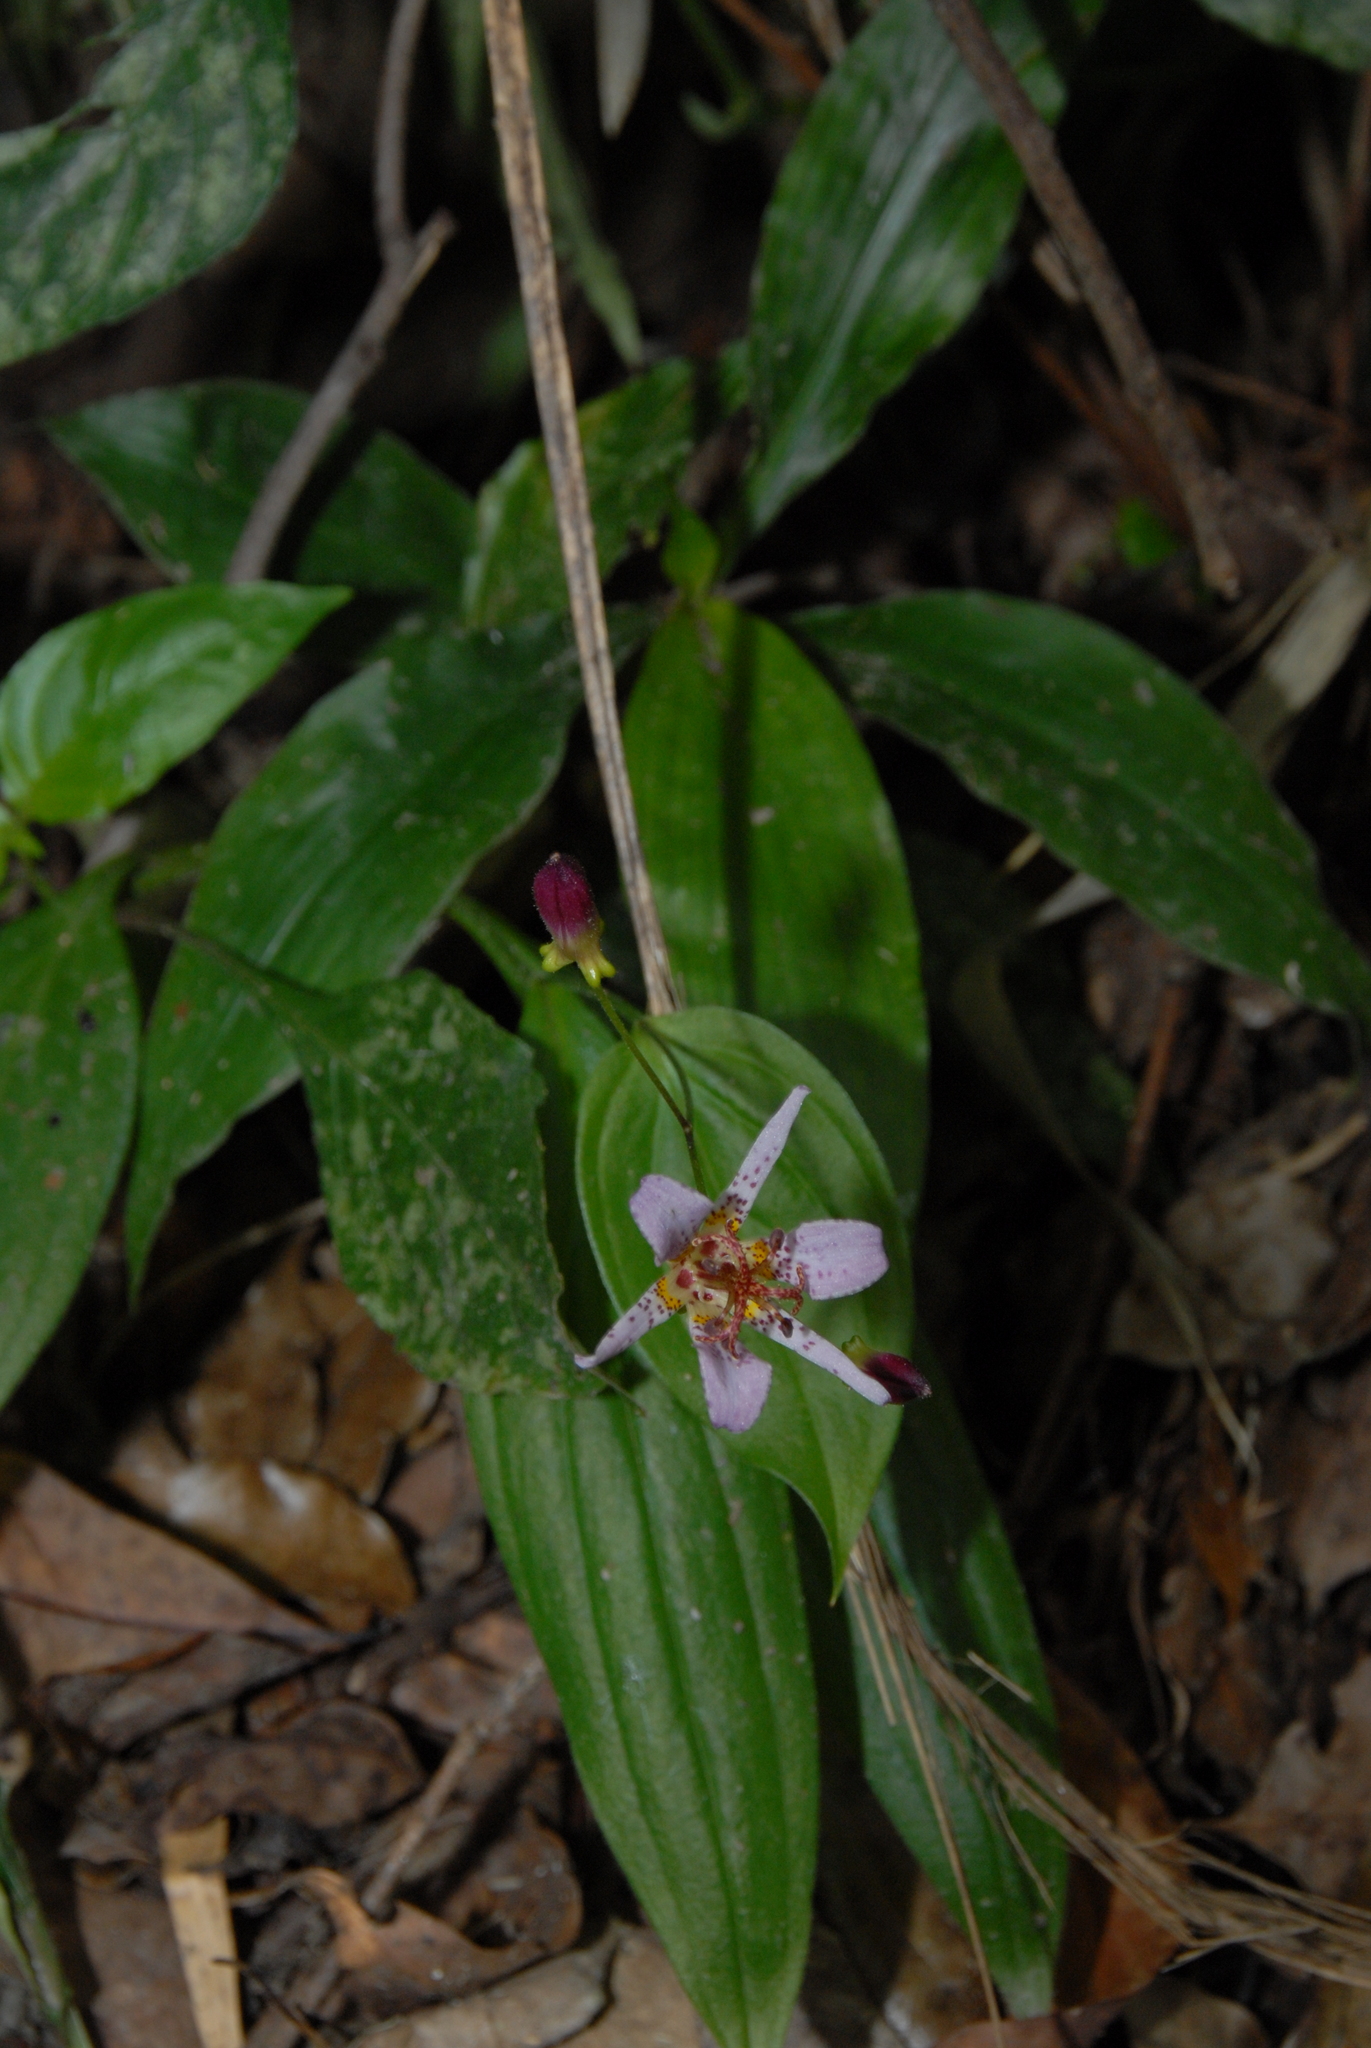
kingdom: Plantae
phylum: Tracheophyta
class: Liliopsida
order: Liliales
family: Liliaceae
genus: Tricyrtis
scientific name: Tricyrtis formosana
